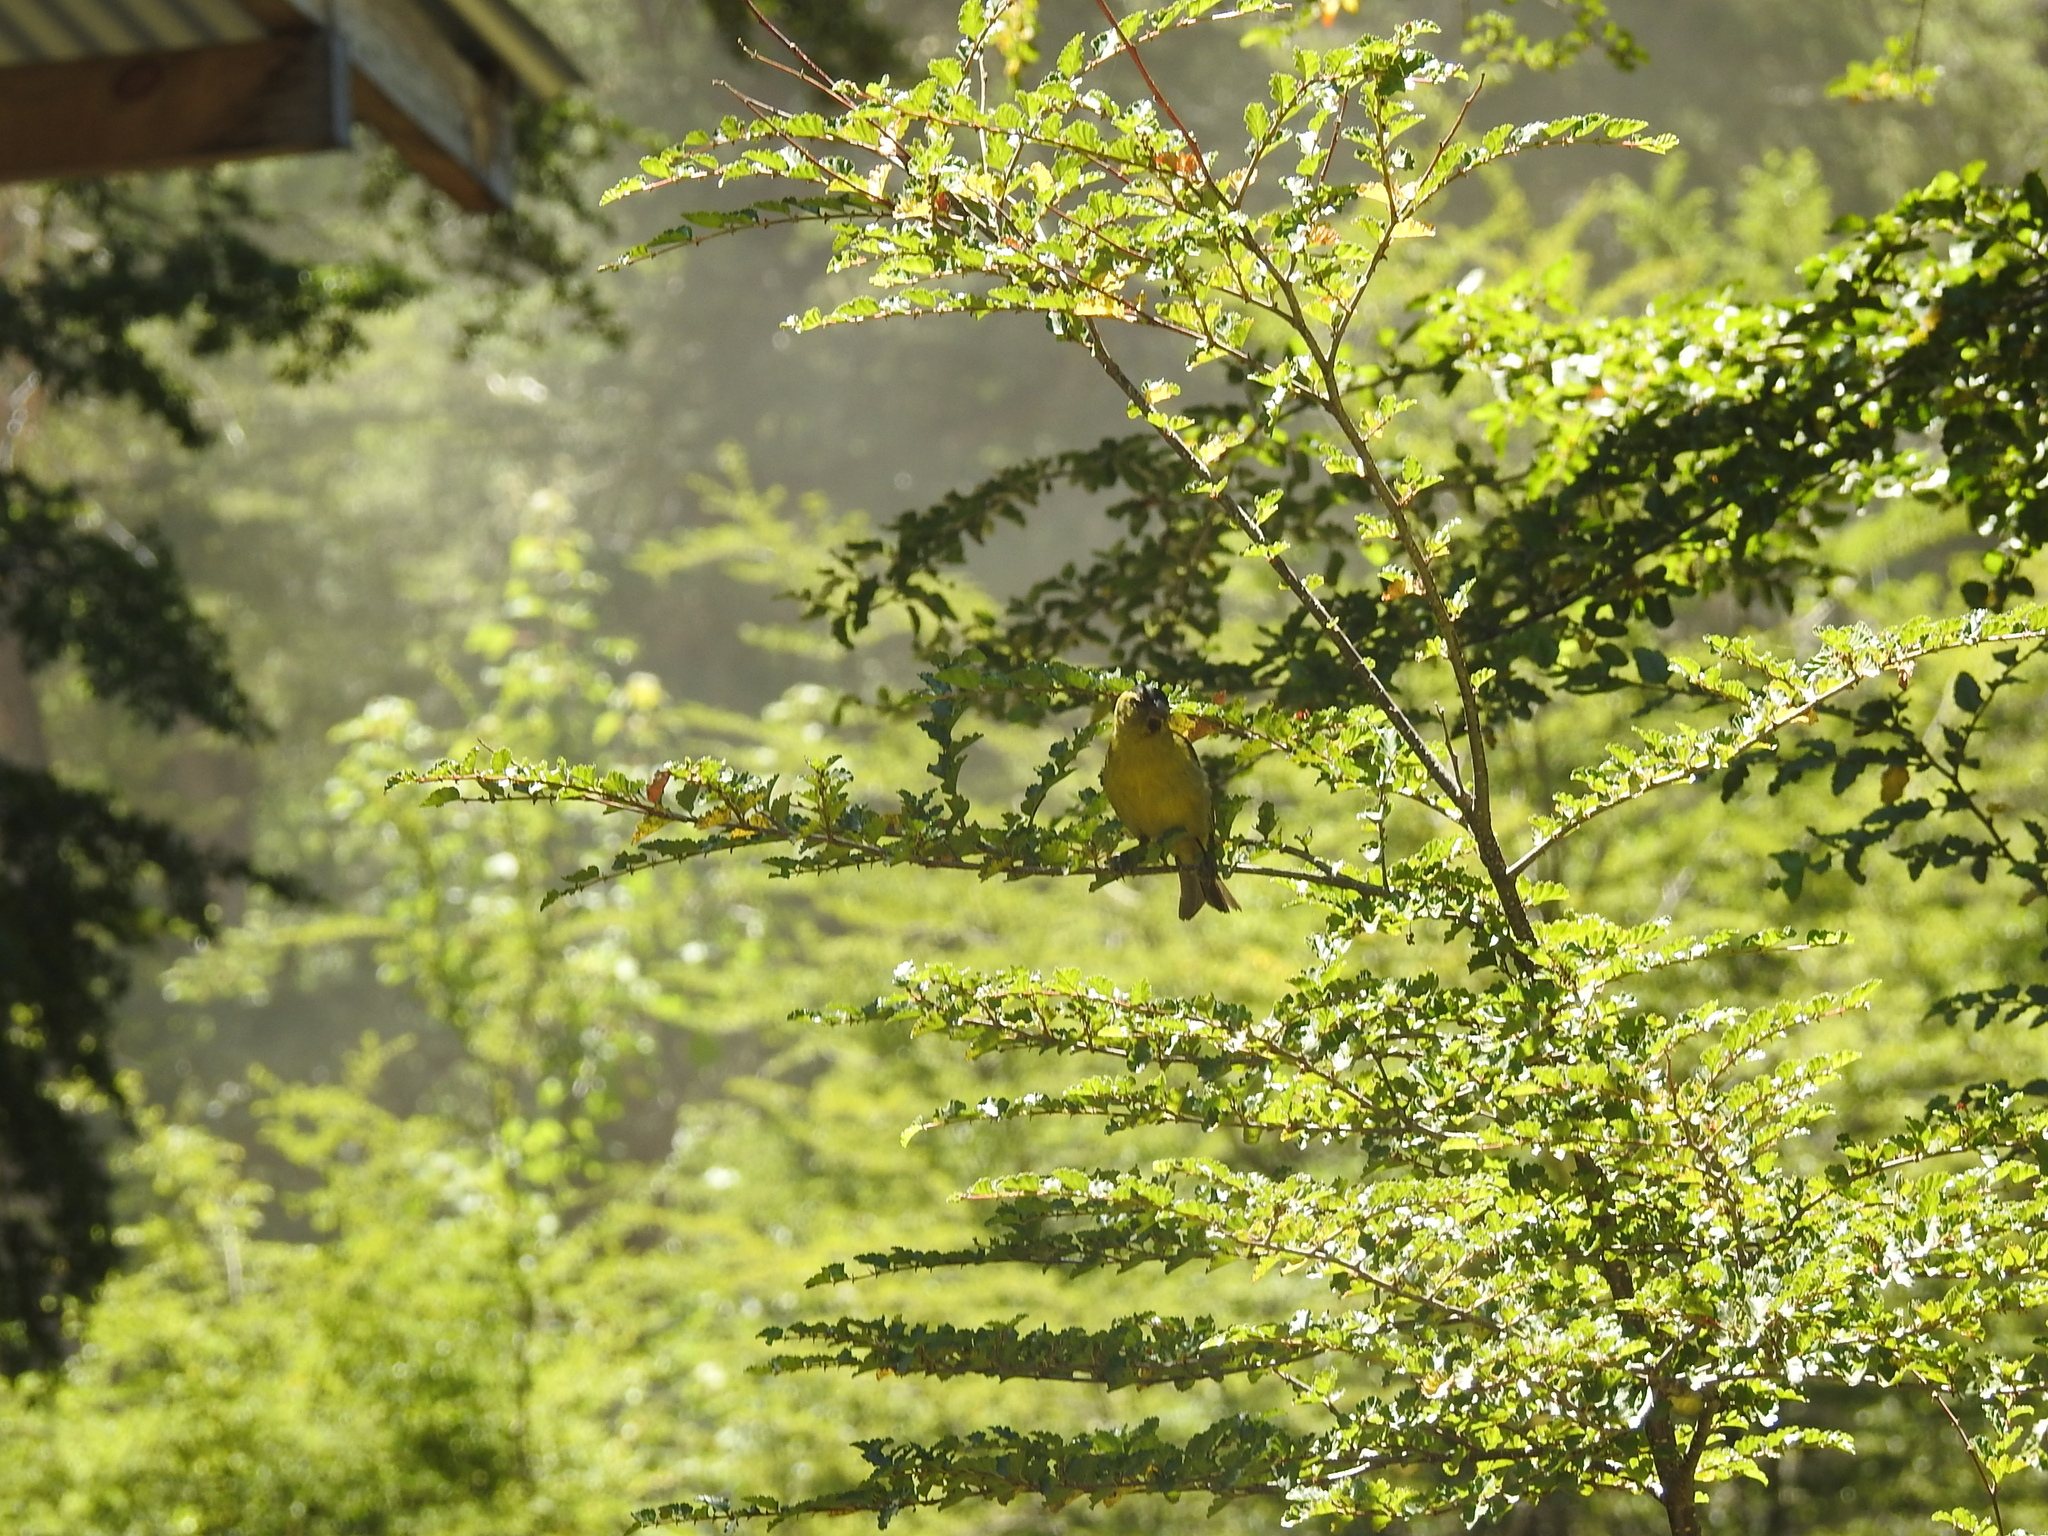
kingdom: Animalia
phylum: Chordata
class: Aves
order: Passeriformes
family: Fringillidae
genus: Spinus
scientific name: Spinus barbatus
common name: Black-chinned siskin
